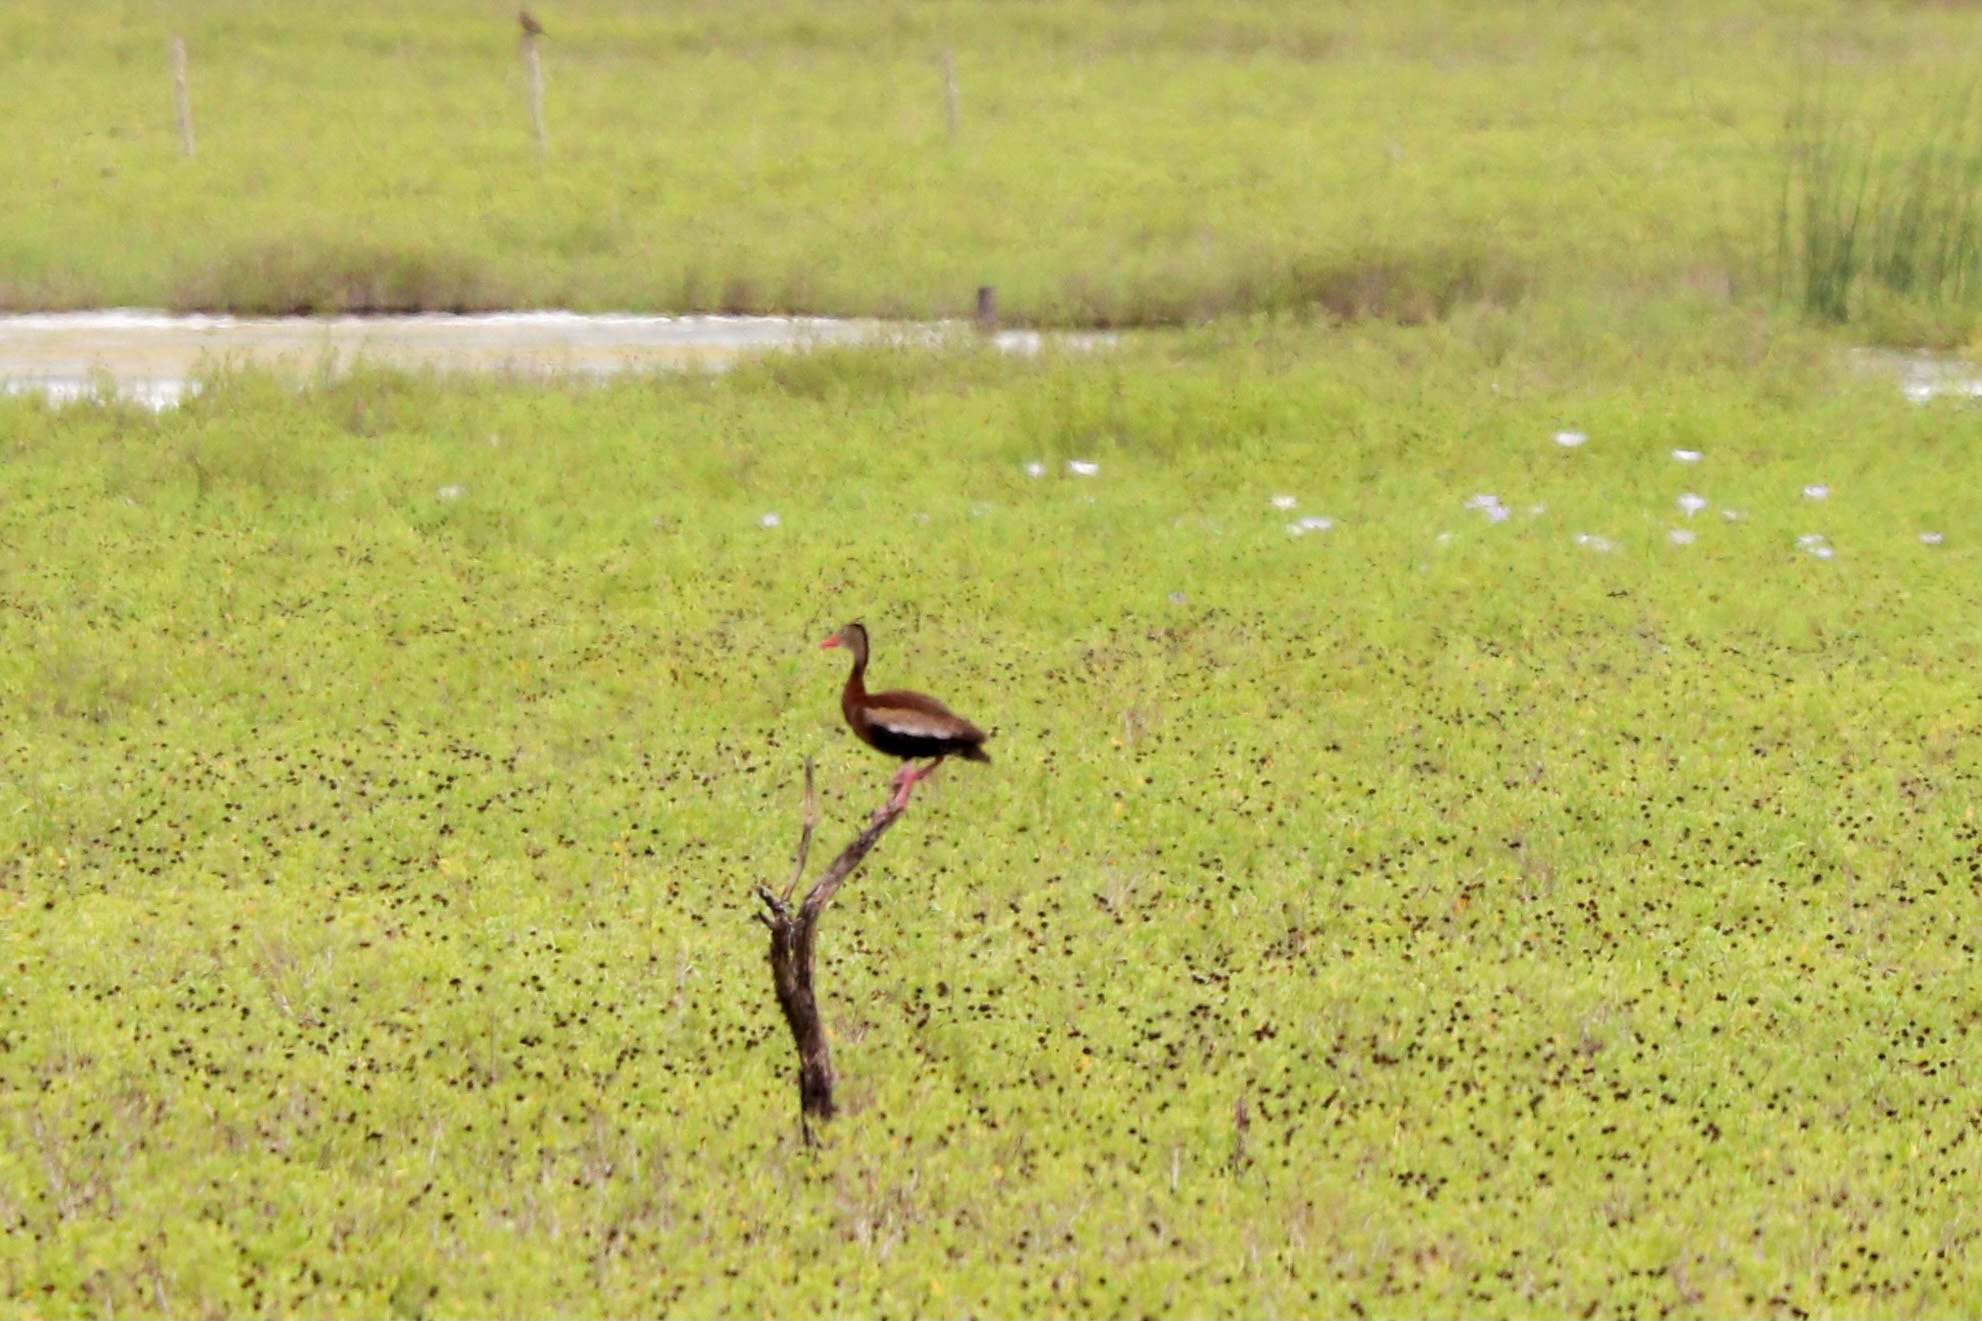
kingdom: Animalia
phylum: Chordata
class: Aves
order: Anseriformes
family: Anatidae
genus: Dendrocygna
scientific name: Dendrocygna autumnalis
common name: Black-bellied whistling duck
